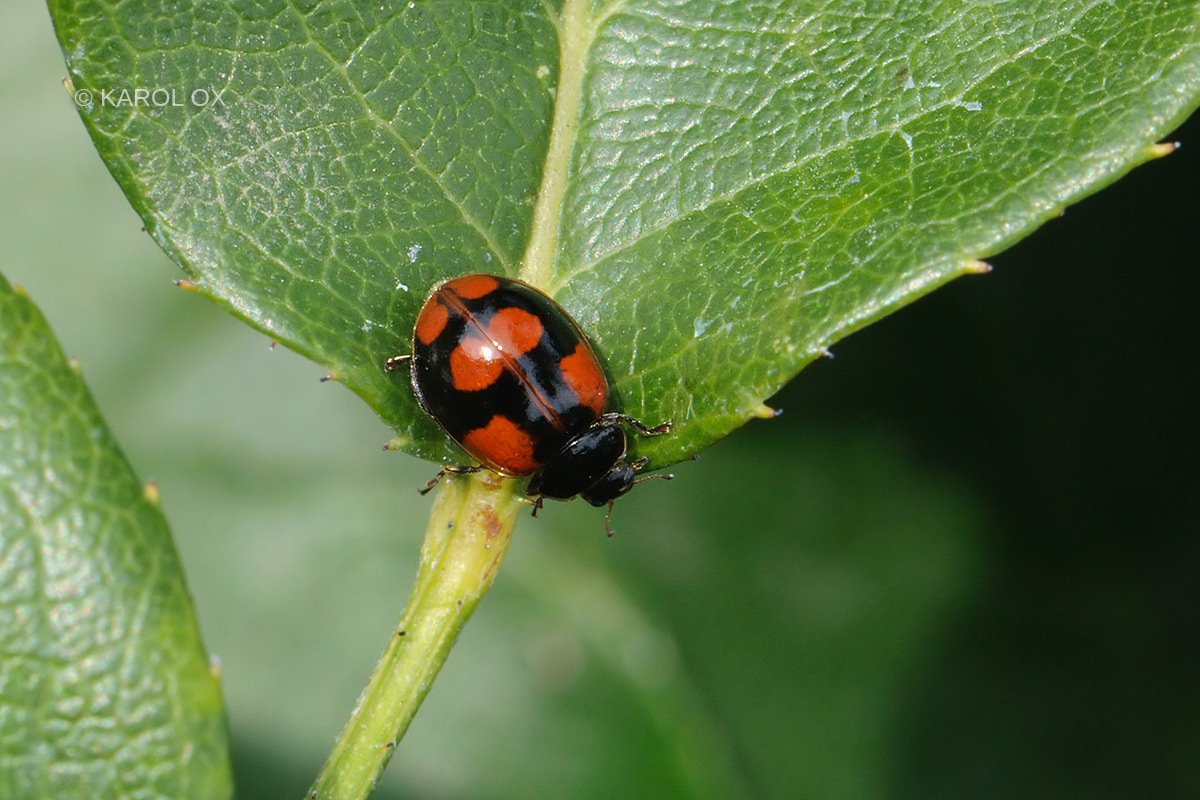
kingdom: Animalia
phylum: Arthropoda
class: Insecta
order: Coleoptera
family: Coccinellidae
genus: Adalia
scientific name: Adalia bipunctata
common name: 2-spot ladybird
